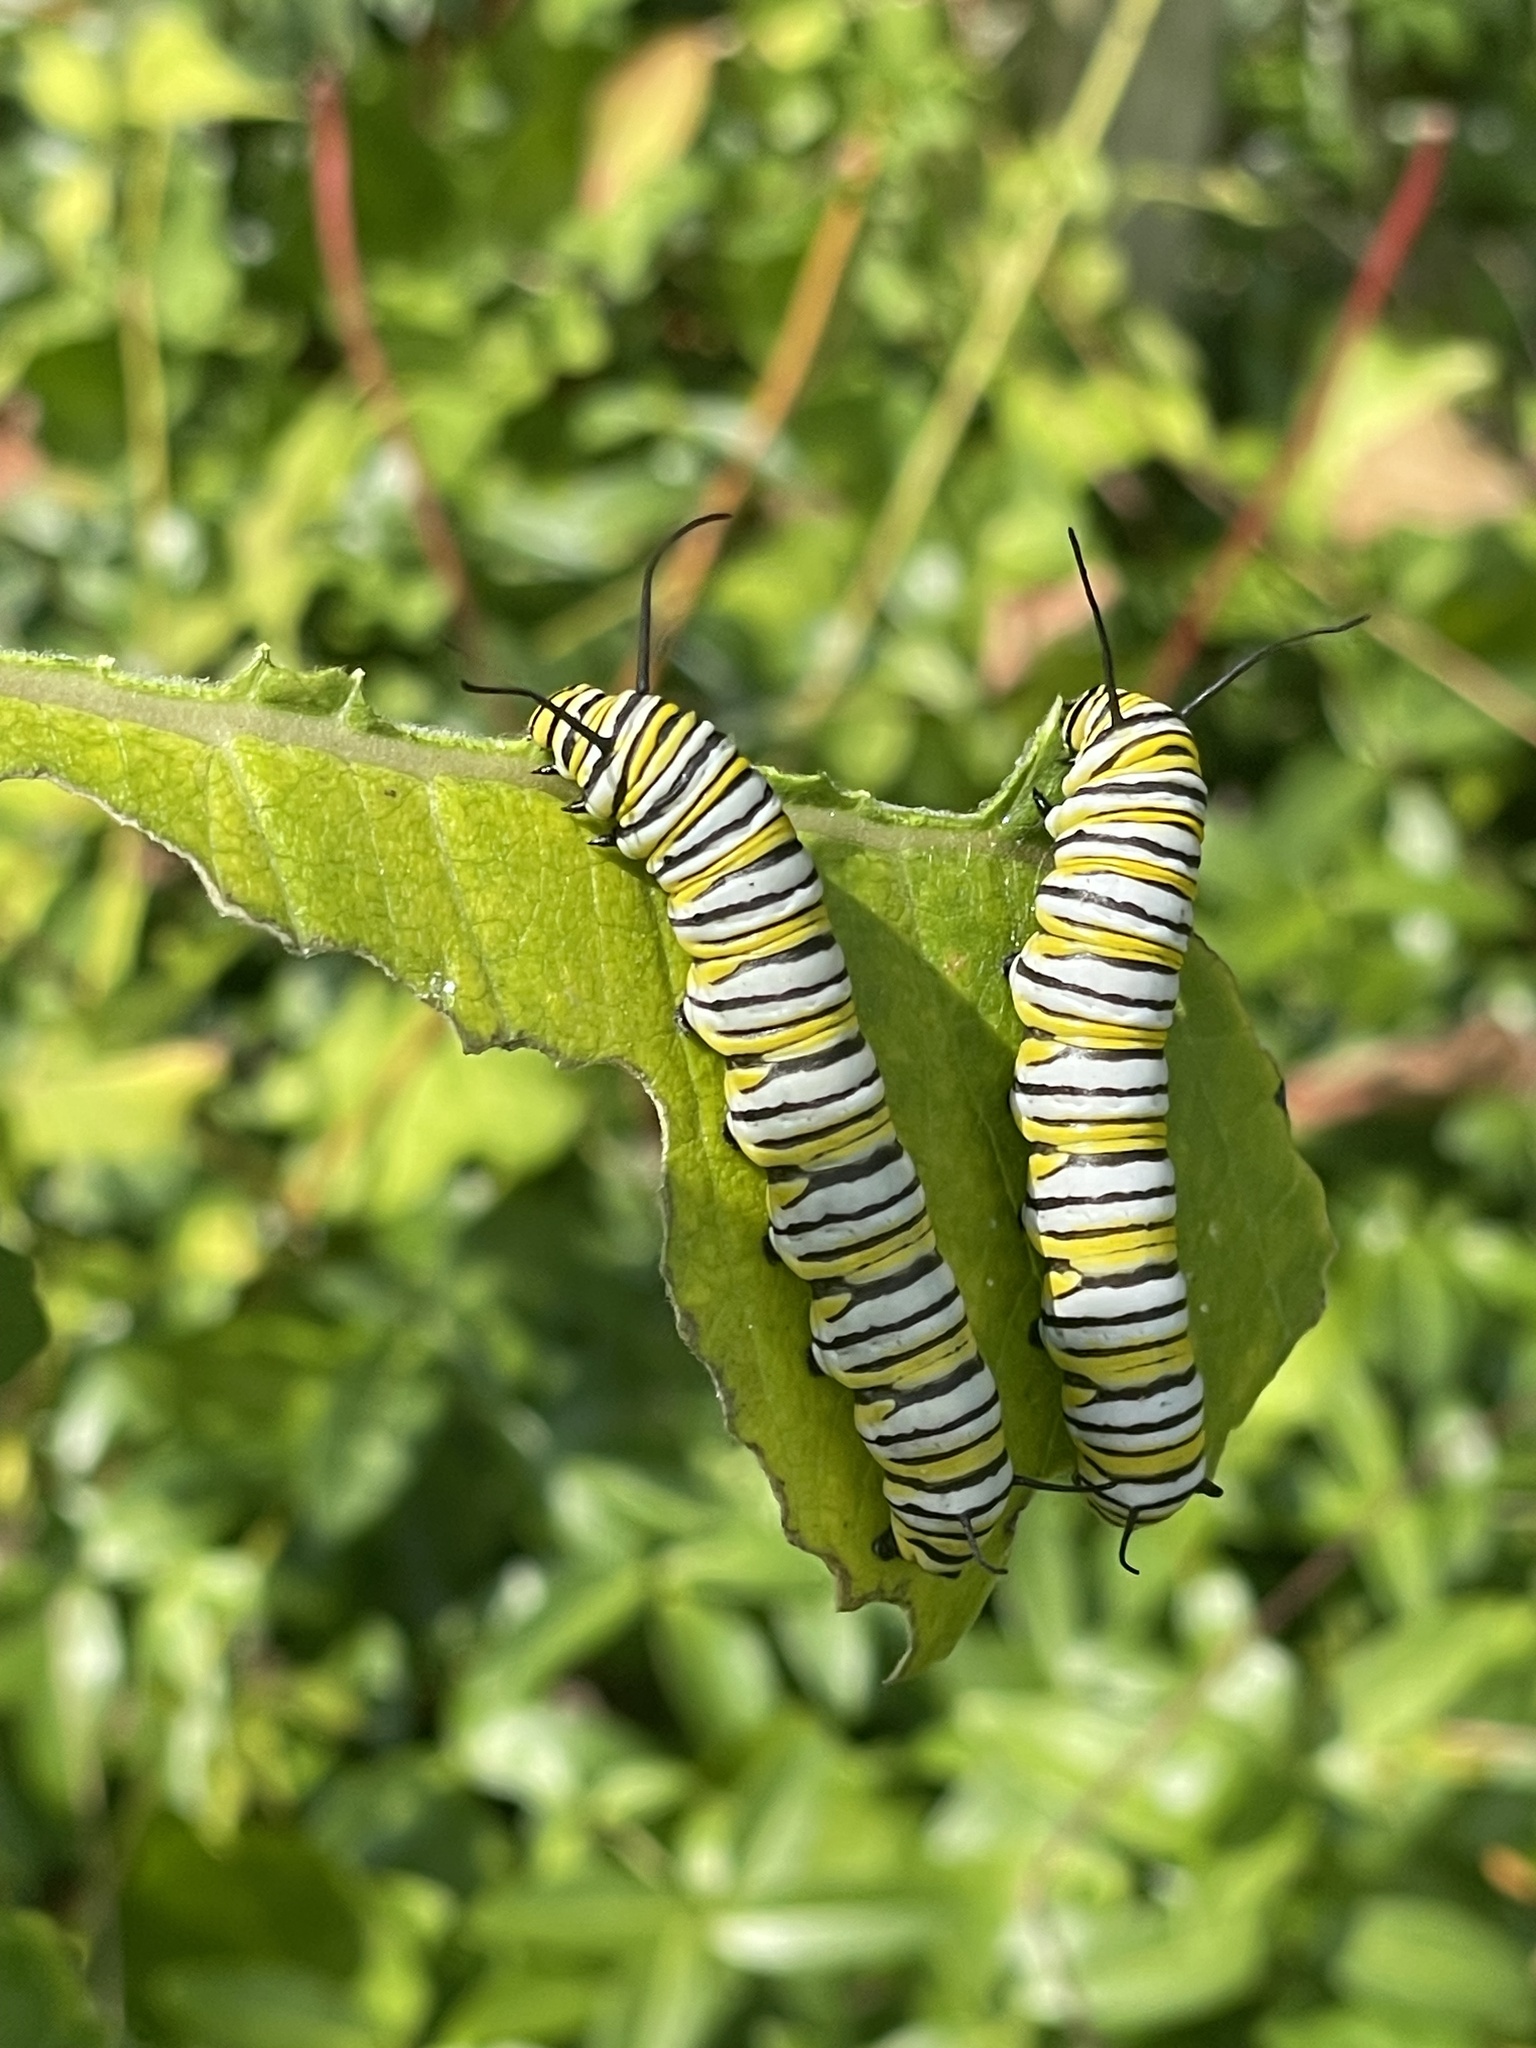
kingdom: Animalia
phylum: Arthropoda
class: Insecta
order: Lepidoptera
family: Nymphalidae
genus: Danaus
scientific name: Danaus plexippus
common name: Monarch
